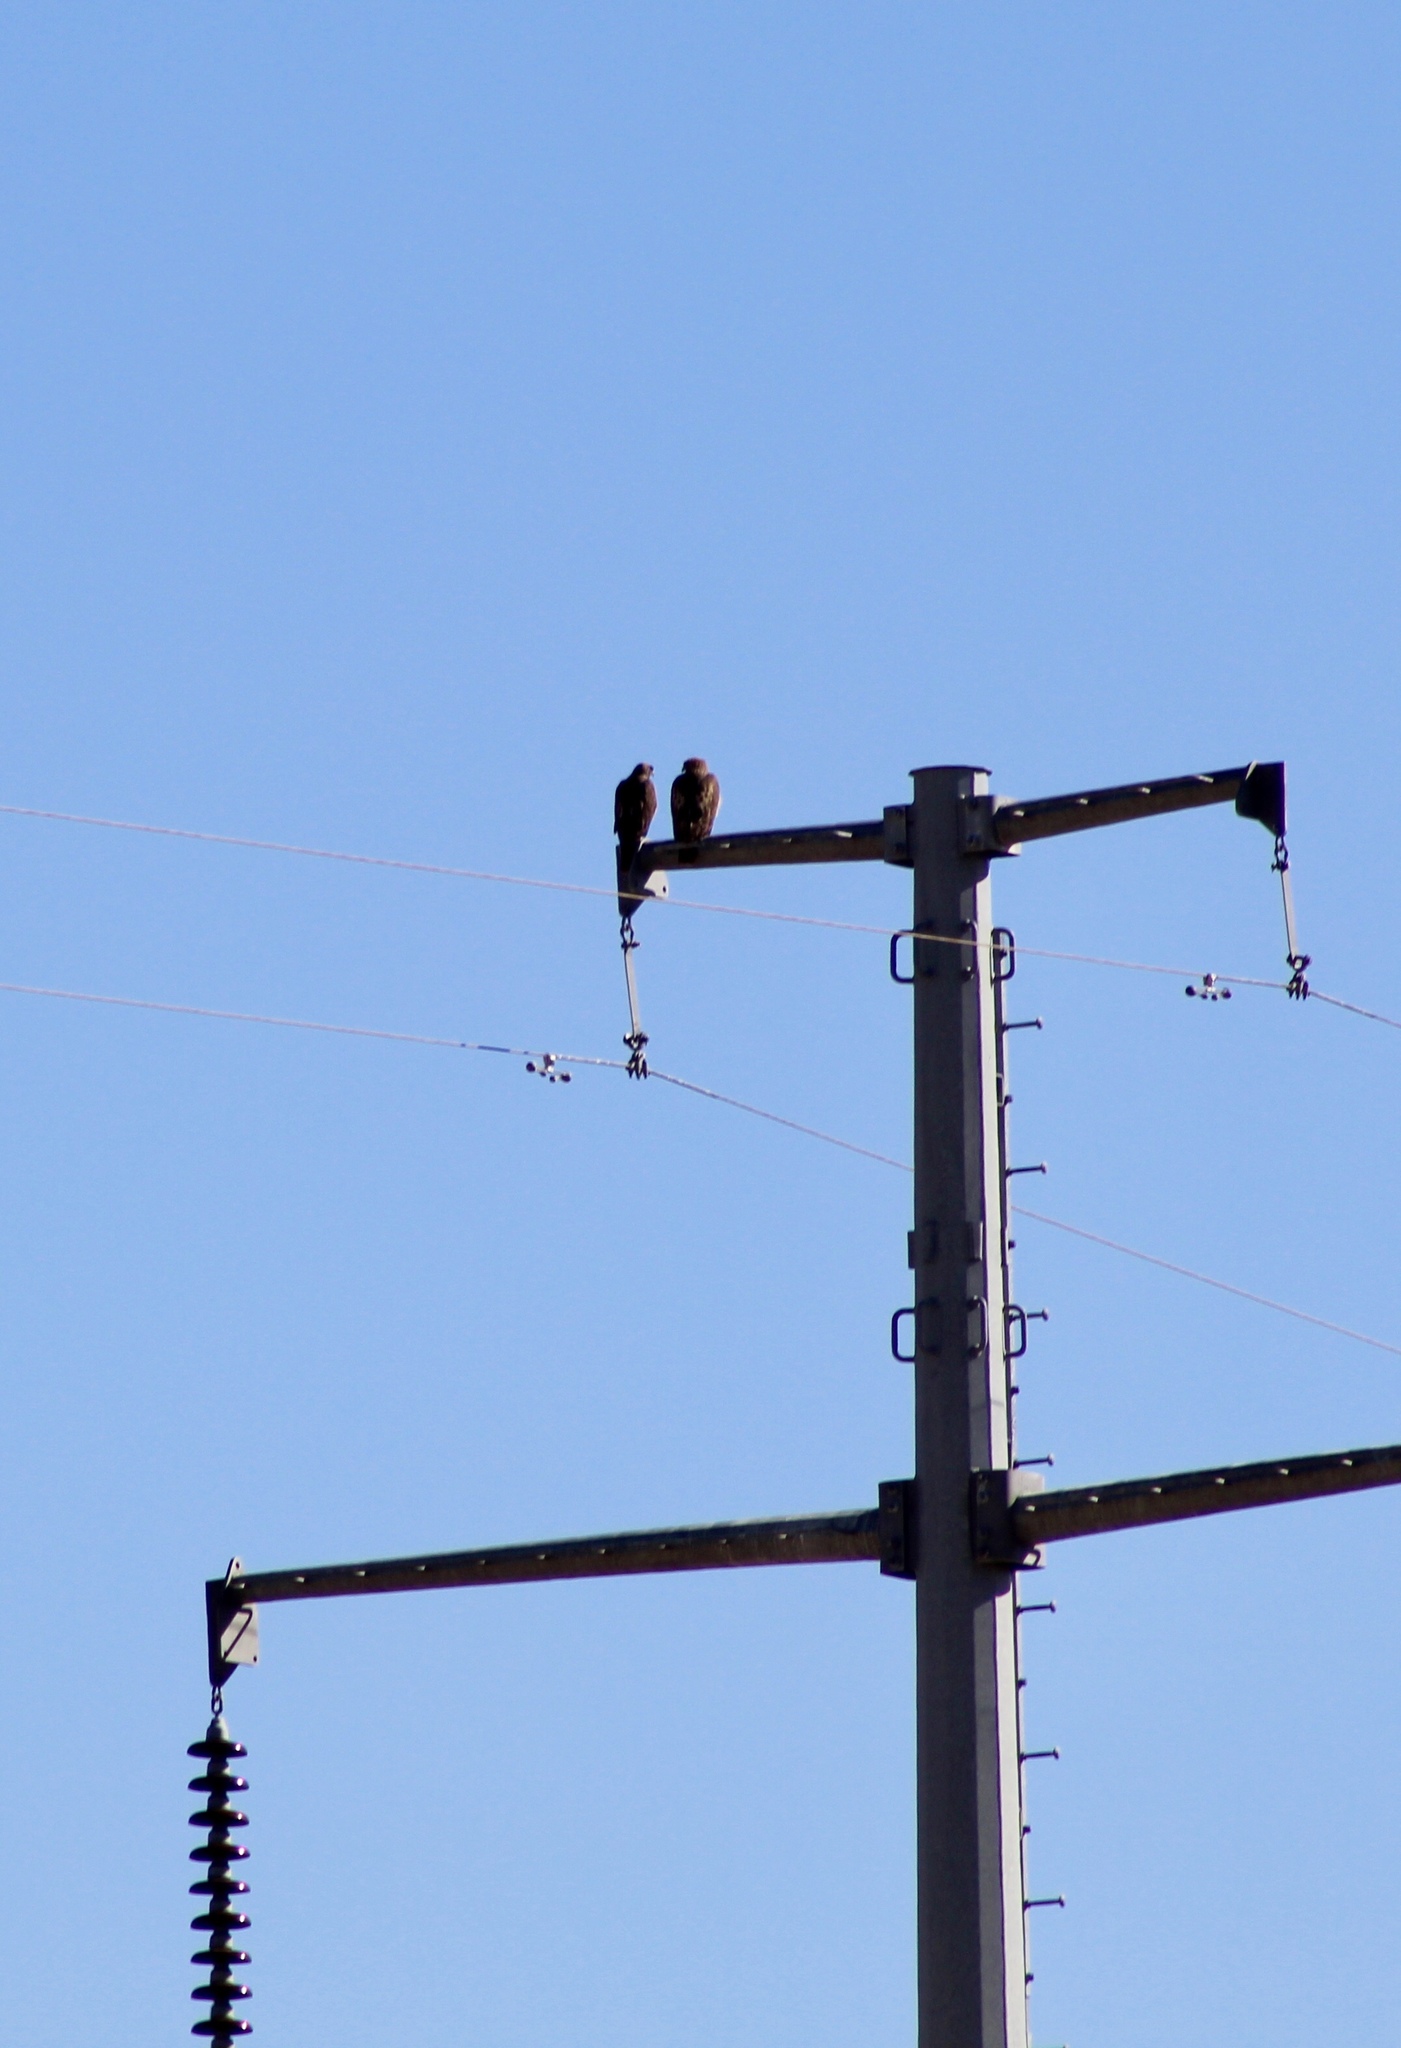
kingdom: Animalia
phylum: Chordata
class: Aves
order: Accipitriformes
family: Accipitridae
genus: Buteo
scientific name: Buteo jamaicensis
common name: Red-tailed hawk
